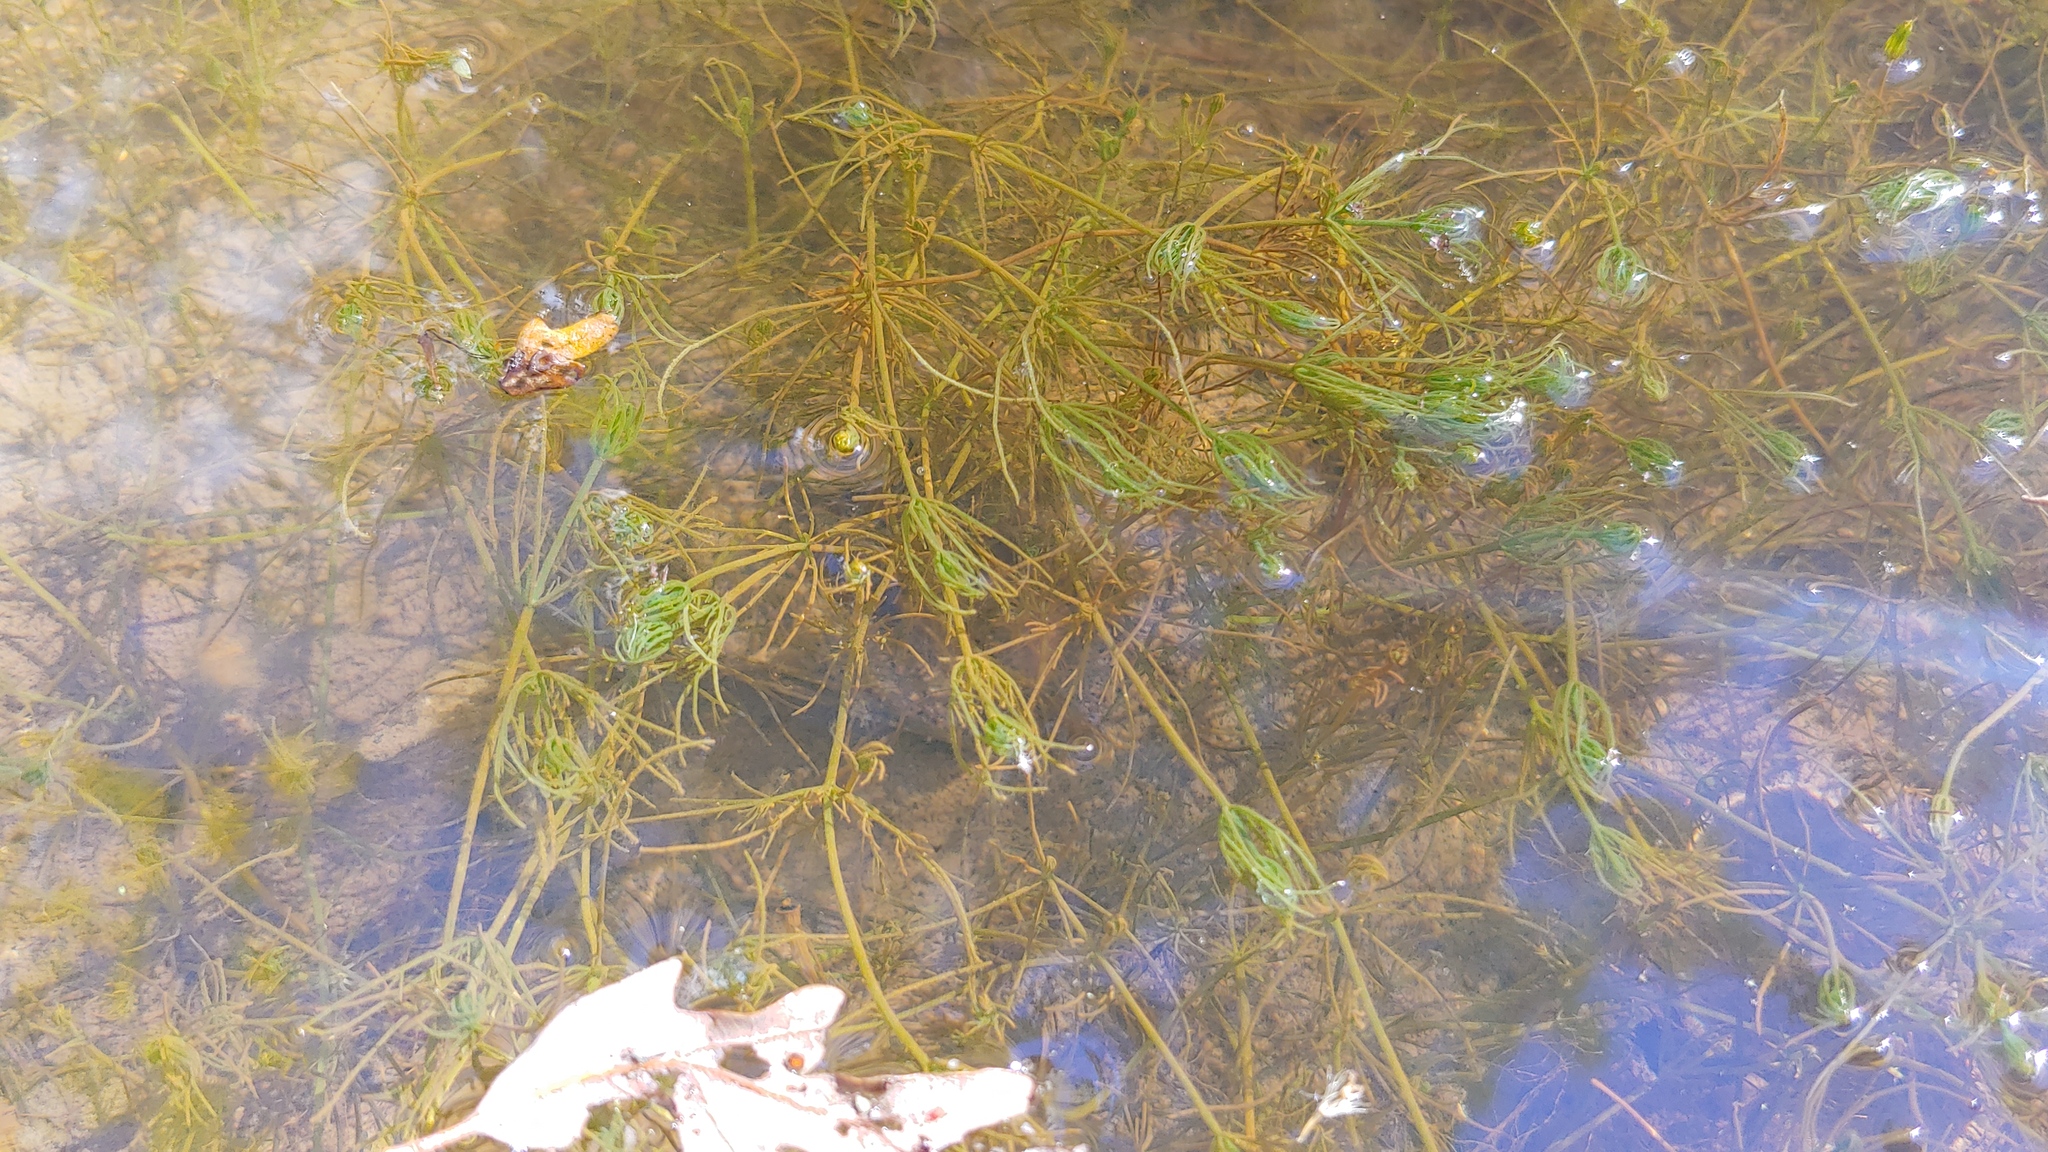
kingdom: Plantae
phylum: Charophyta
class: Charophyceae
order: Charales
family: Characeae
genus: Chara
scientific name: Chara
